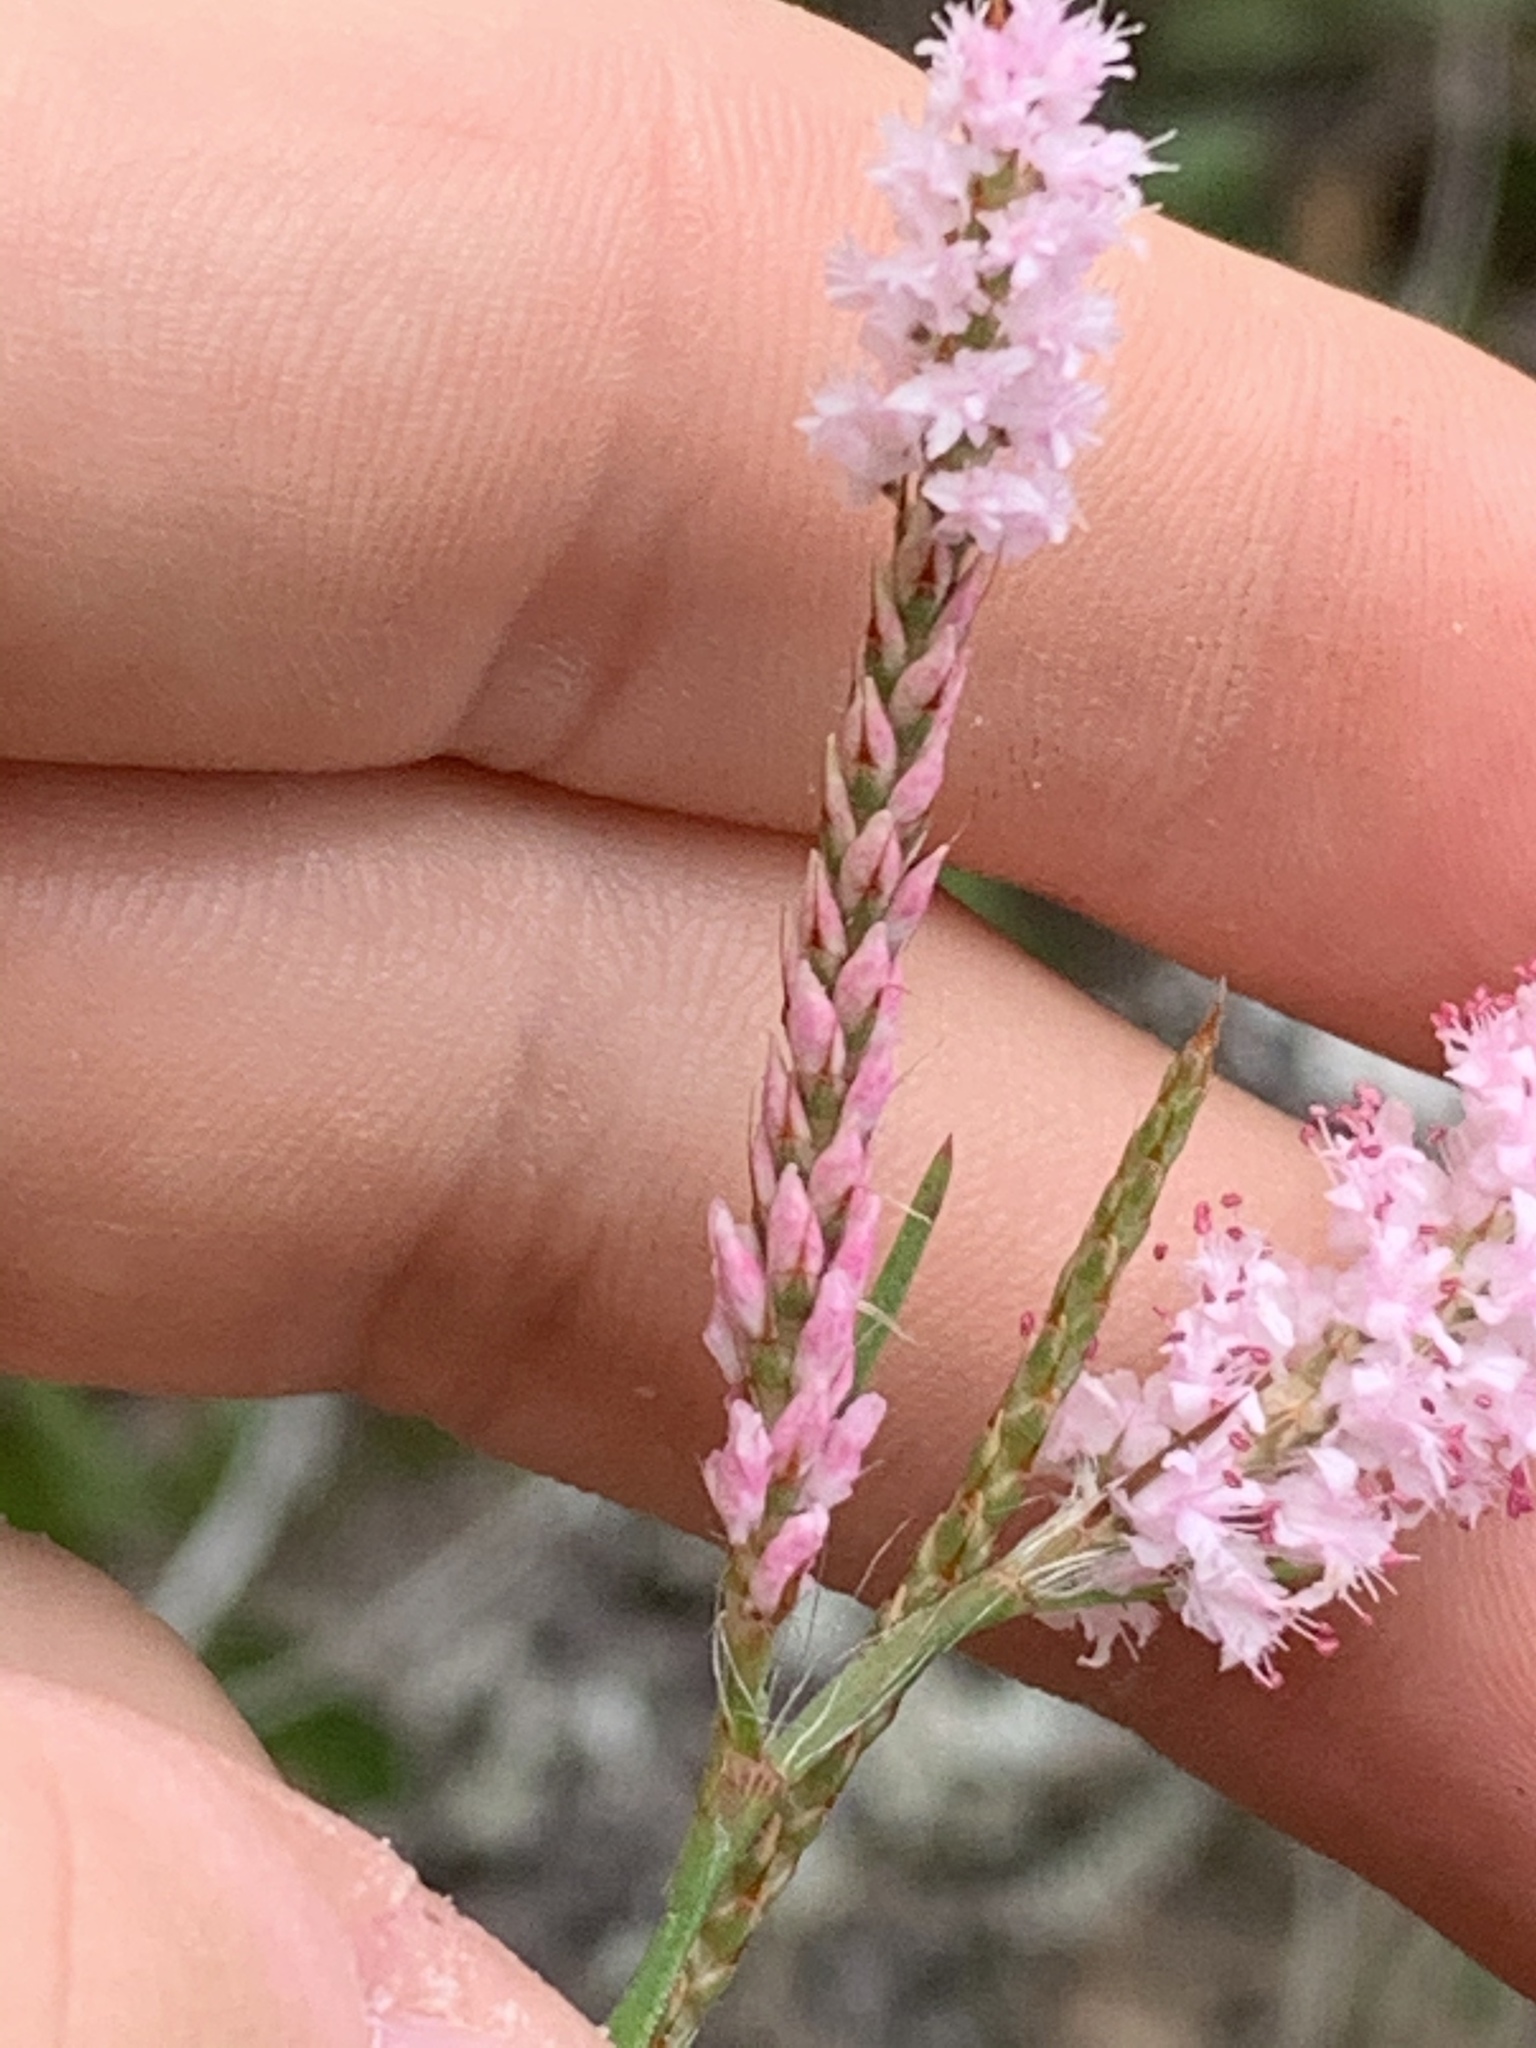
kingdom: Plantae
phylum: Tracheophyta
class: Magnoliopsida
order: Caryophyllales
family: Polygonaceae
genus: Polygonella
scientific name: Polygonella robusta
